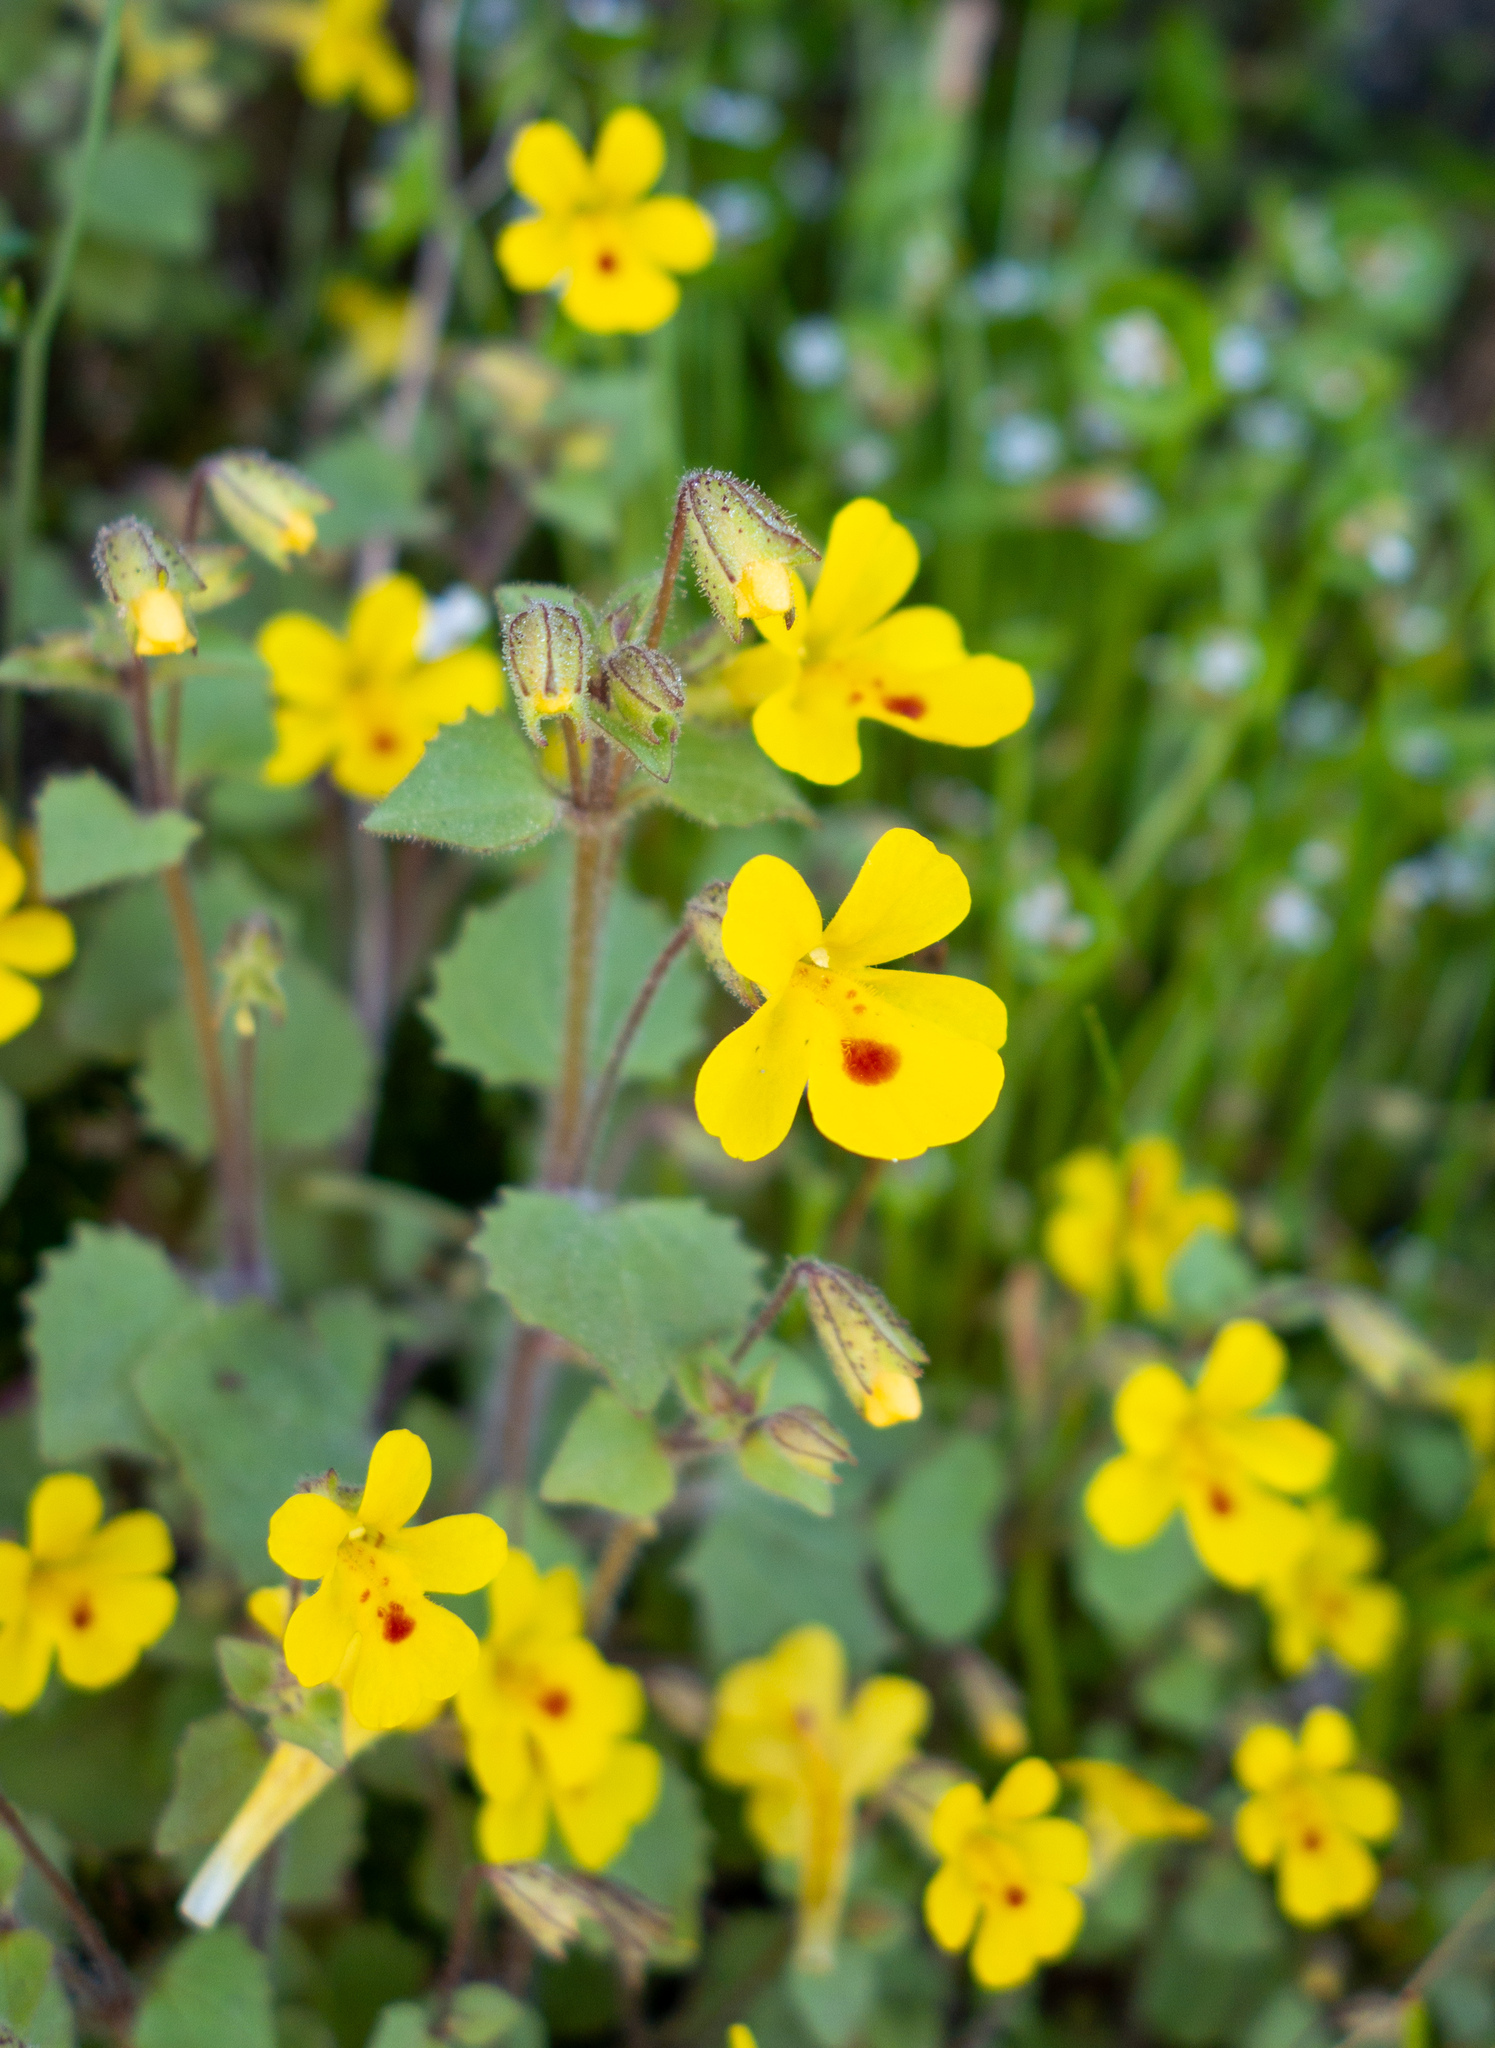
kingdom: Plantae
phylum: Tracheophyta
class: Magnoliopsida
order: Lamiales
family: Phrymaceae
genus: Erythranthe
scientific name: Erythranthe marmorata
